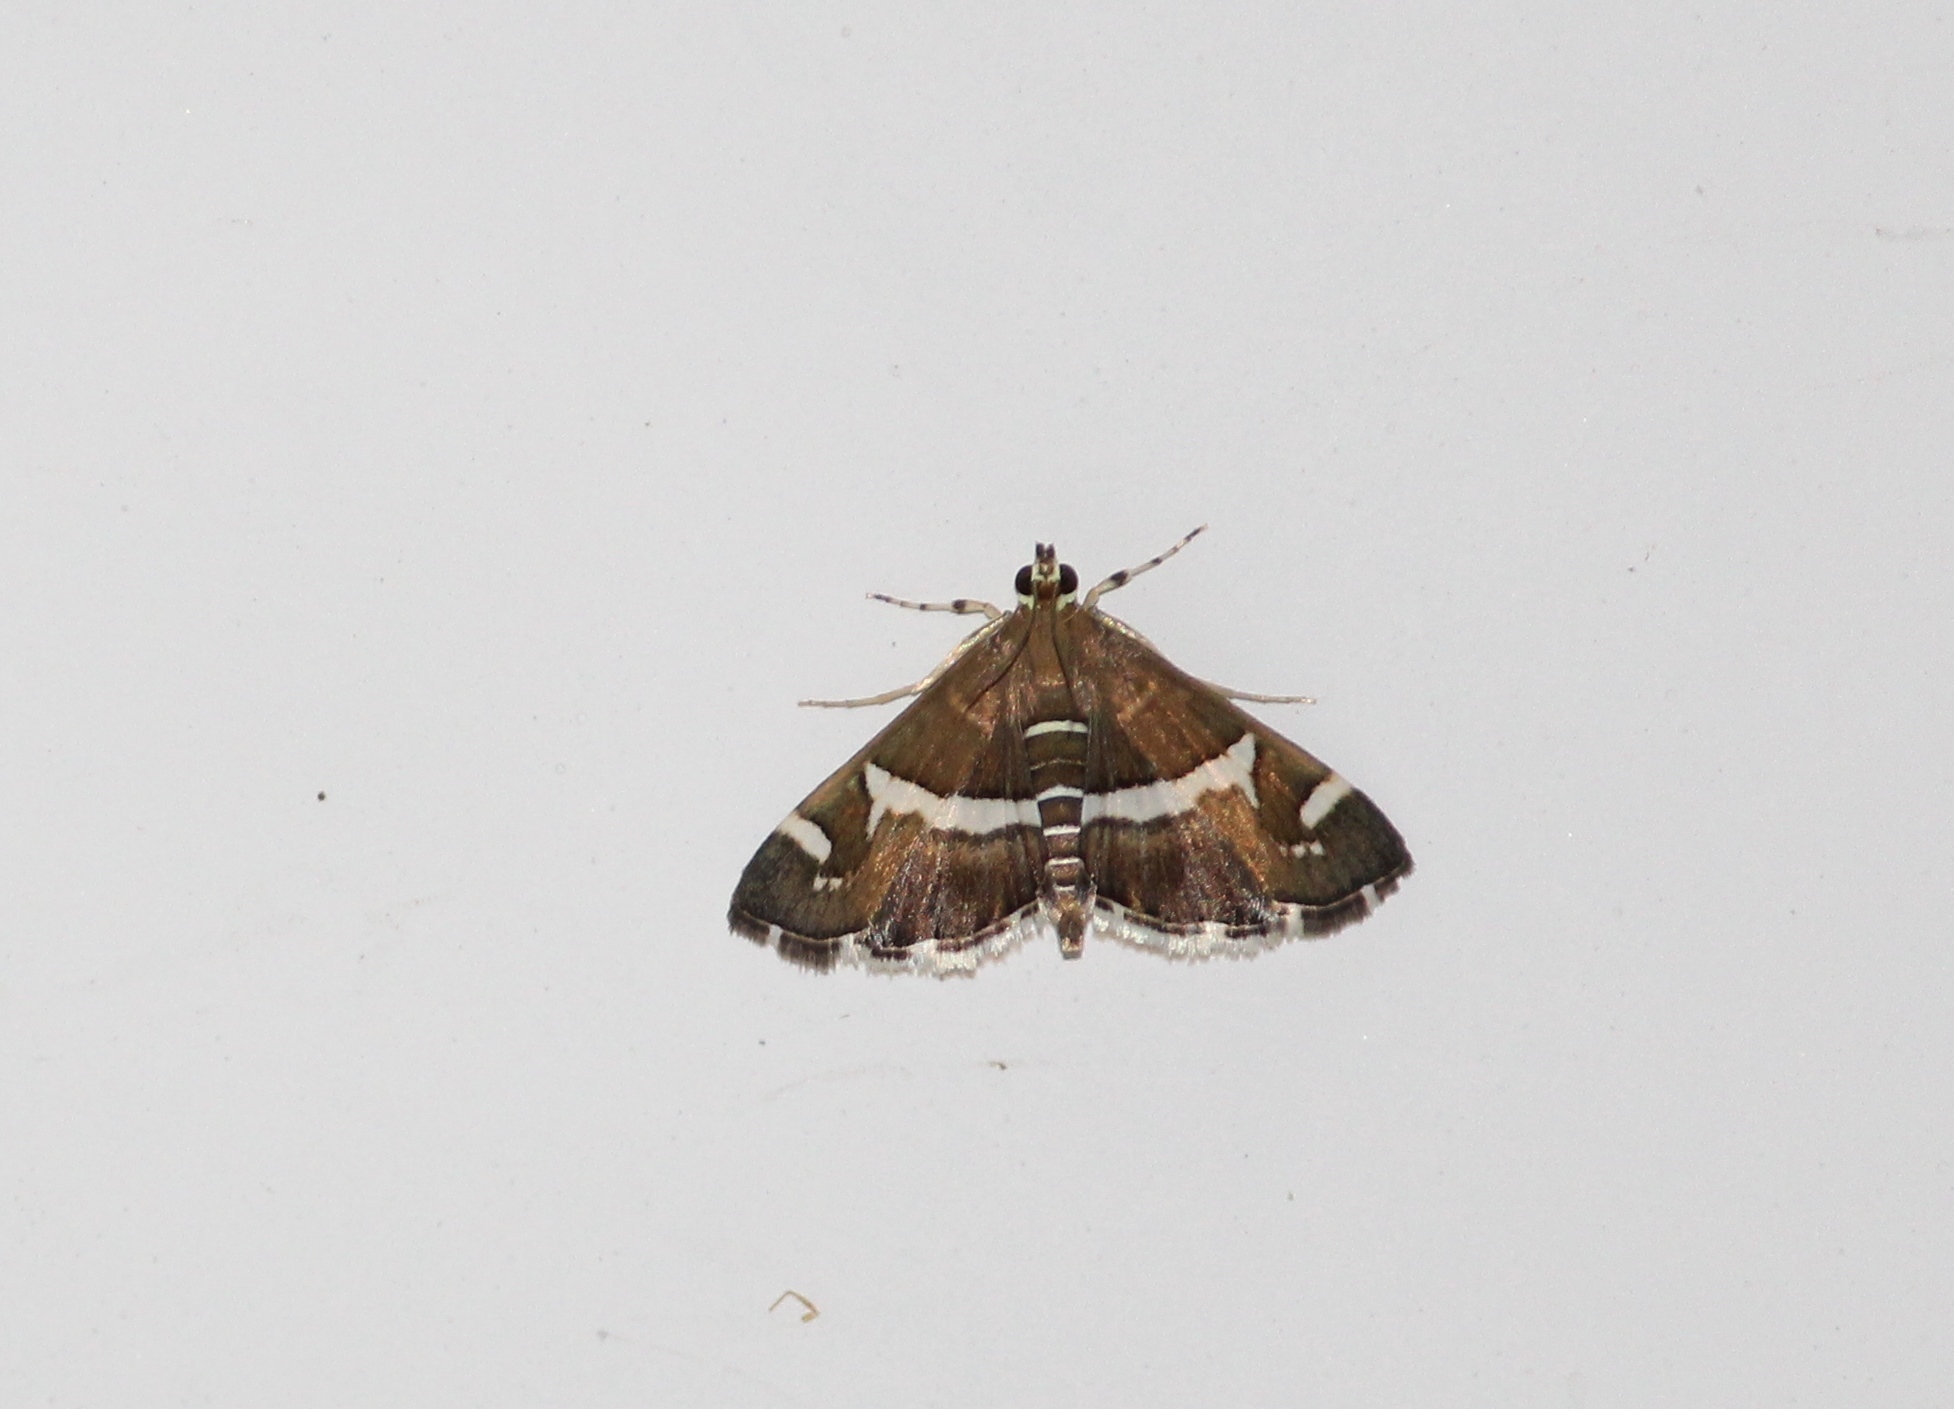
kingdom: Animalia
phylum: Arthropoda
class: Insecta
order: Lepidoptera
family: Crambidae
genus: Spoladea
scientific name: Spoladea recurvalis
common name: Beet webworm moth
